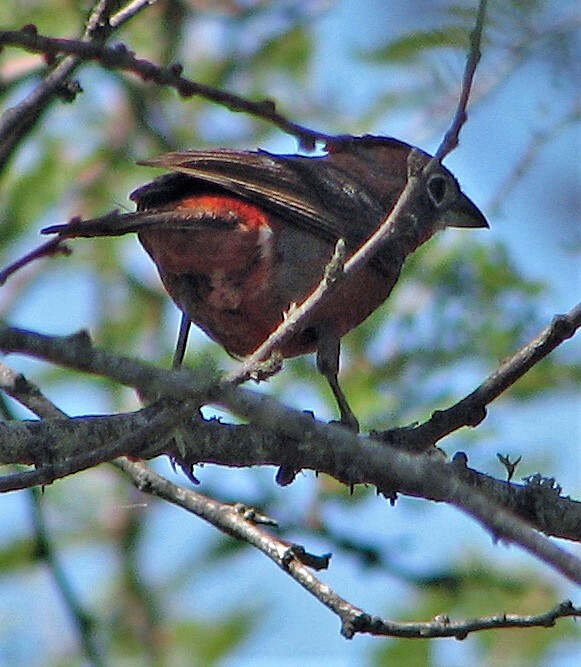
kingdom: Animalia
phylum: Chordata
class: Aves
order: Passeriformes
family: Thraupidae
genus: Coryphospingus
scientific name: Coryphospingus cucullatus
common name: Red pileated finch
